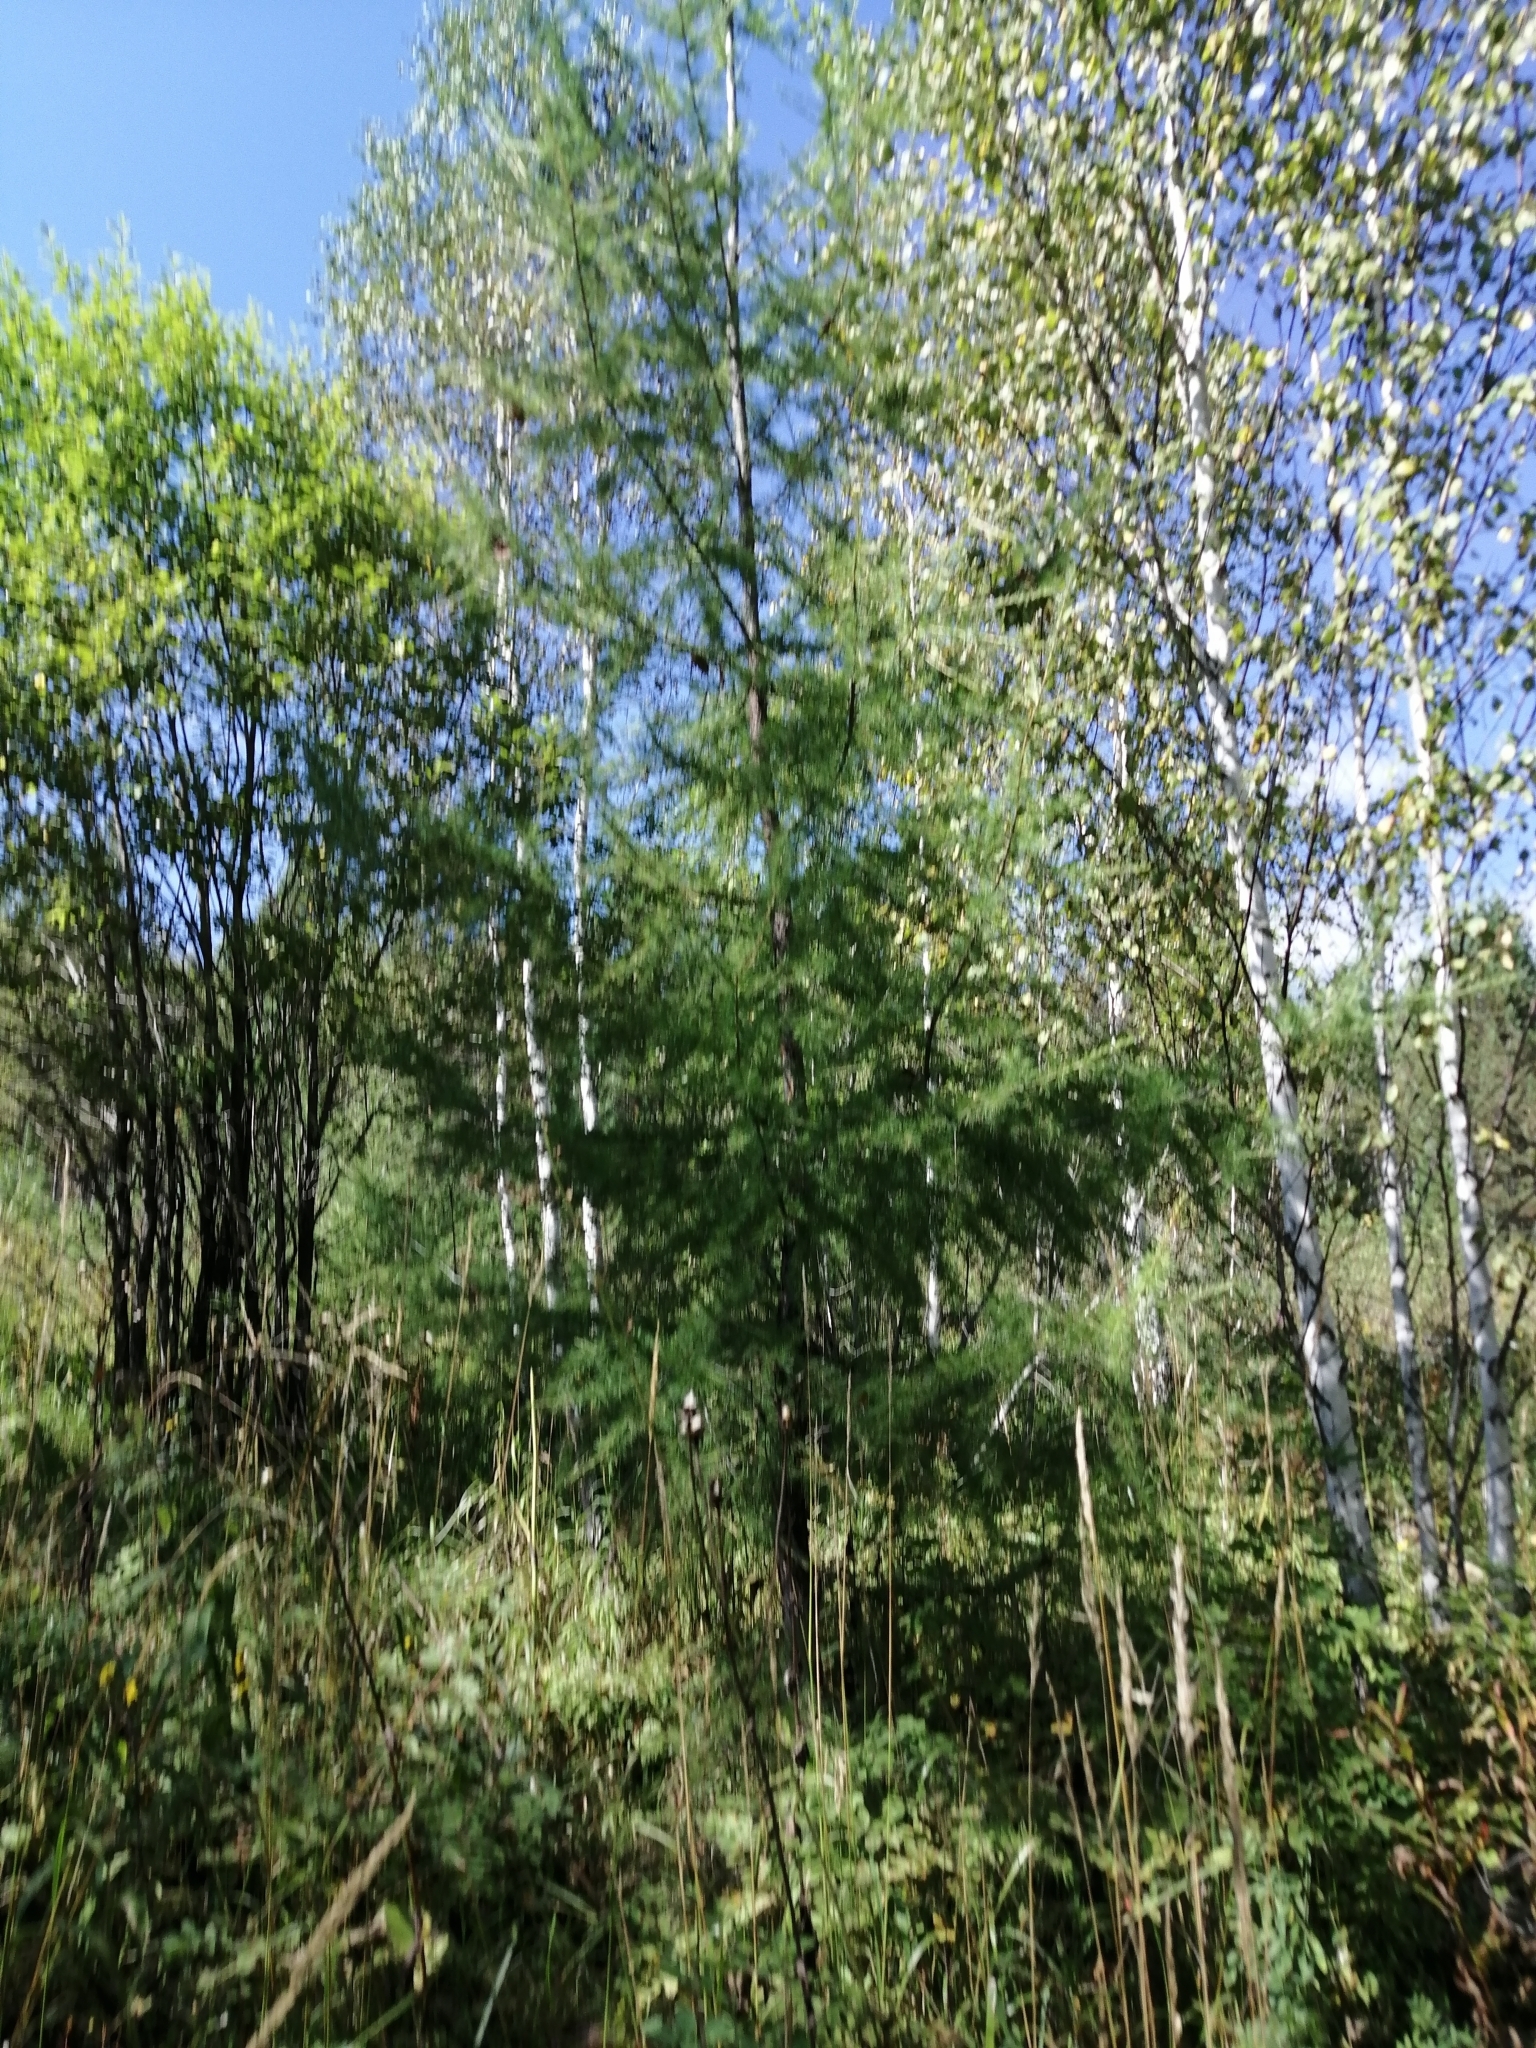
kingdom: Plantae
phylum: Tracheophyta
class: Pinopsida
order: Pinales
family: Pinaceae
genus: Larix
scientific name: Larix sibirica
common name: Siberian larch
